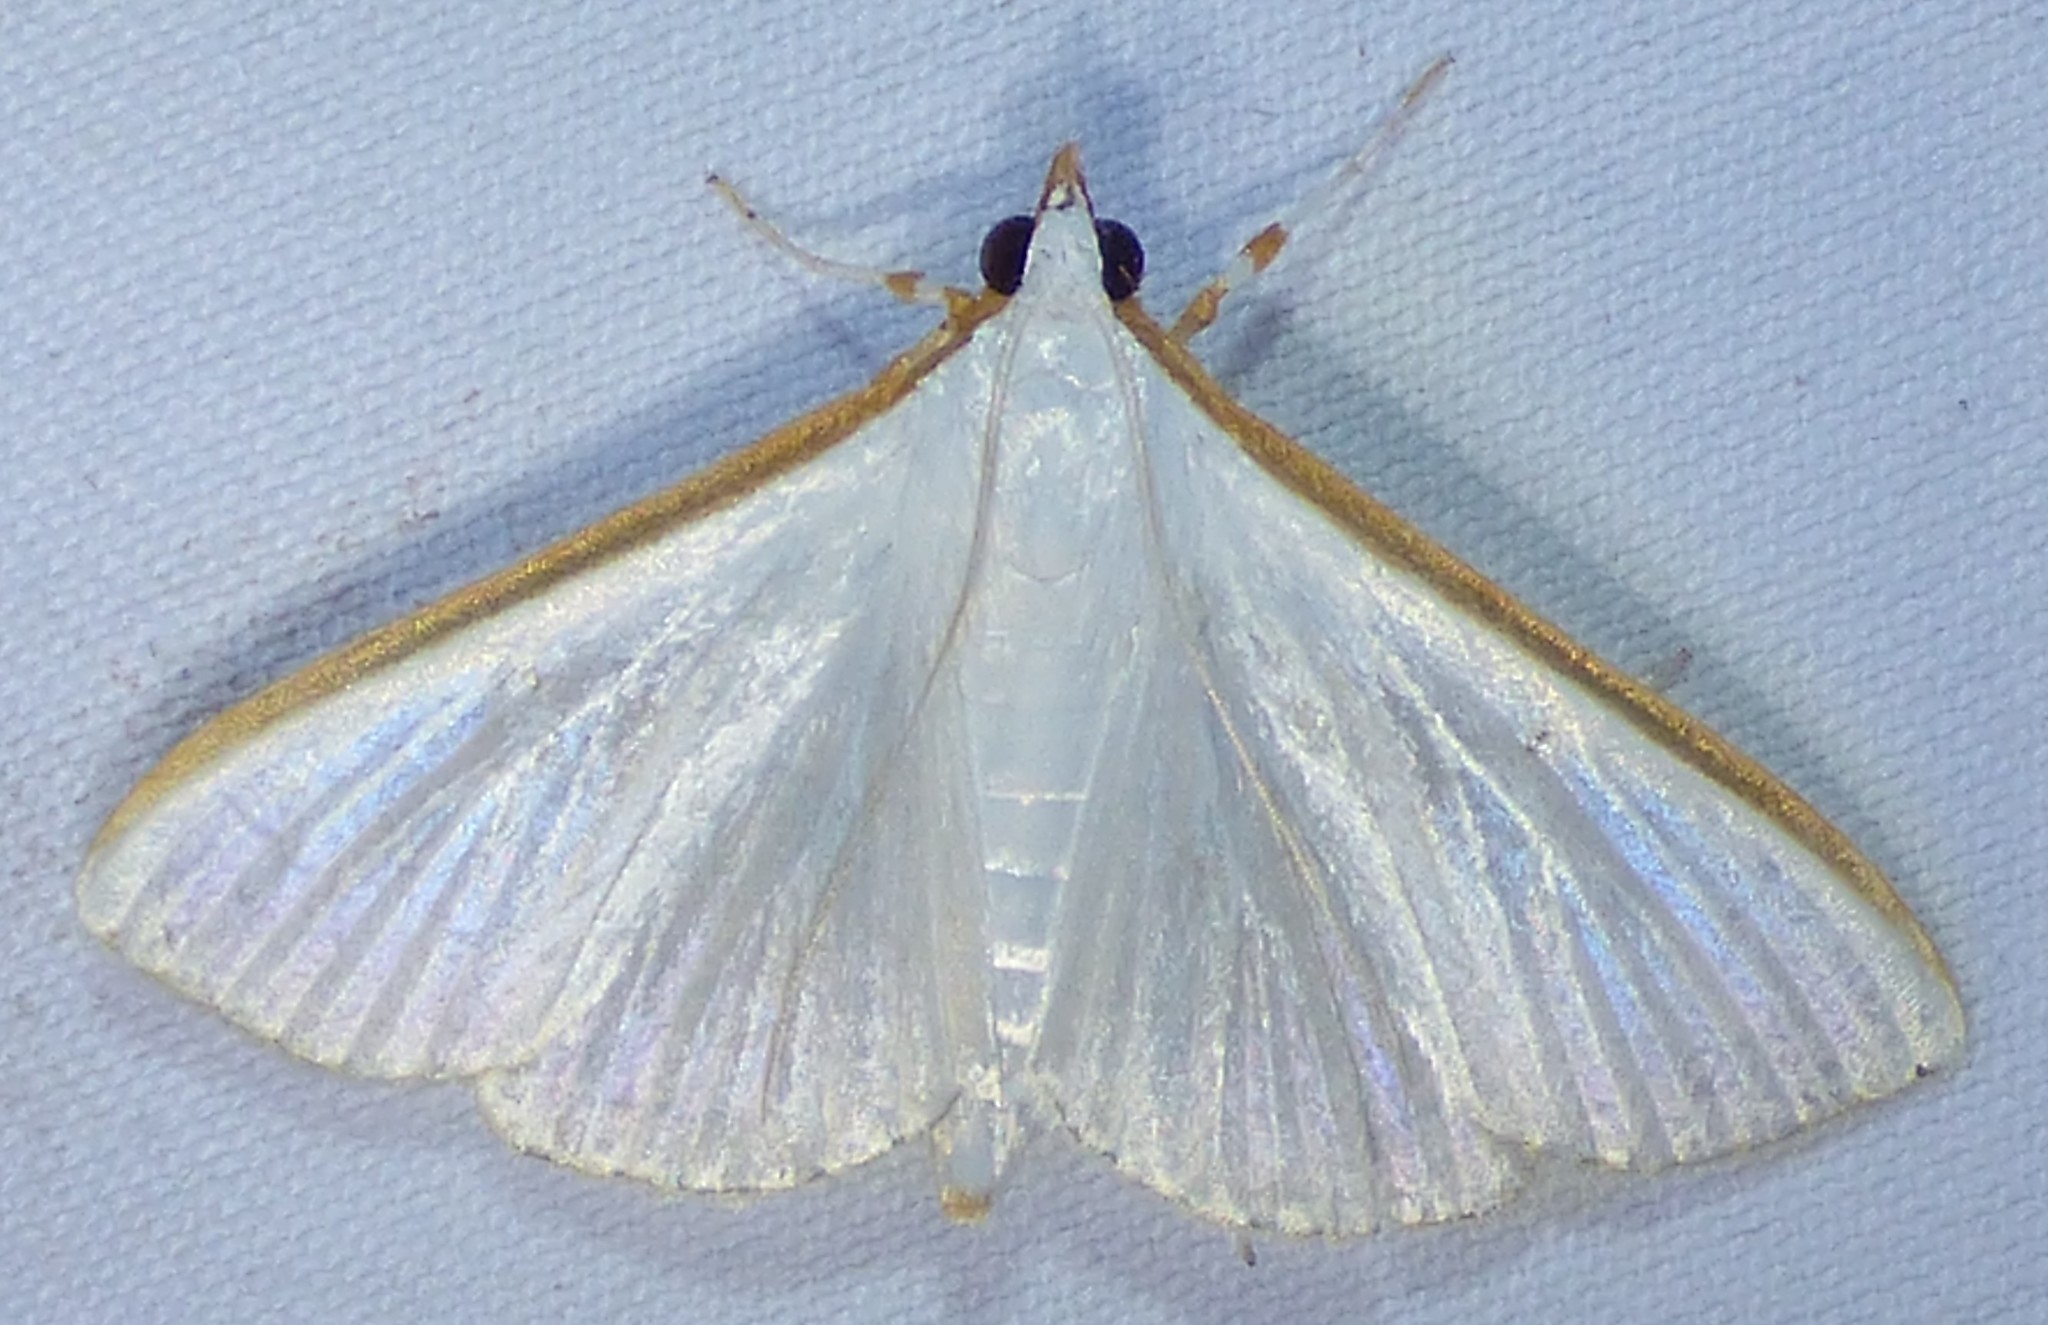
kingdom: Animalia
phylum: Arthropoda
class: Insecta
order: Lepidoptera
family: Crambidae
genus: Diaphania
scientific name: Diaphania costata
